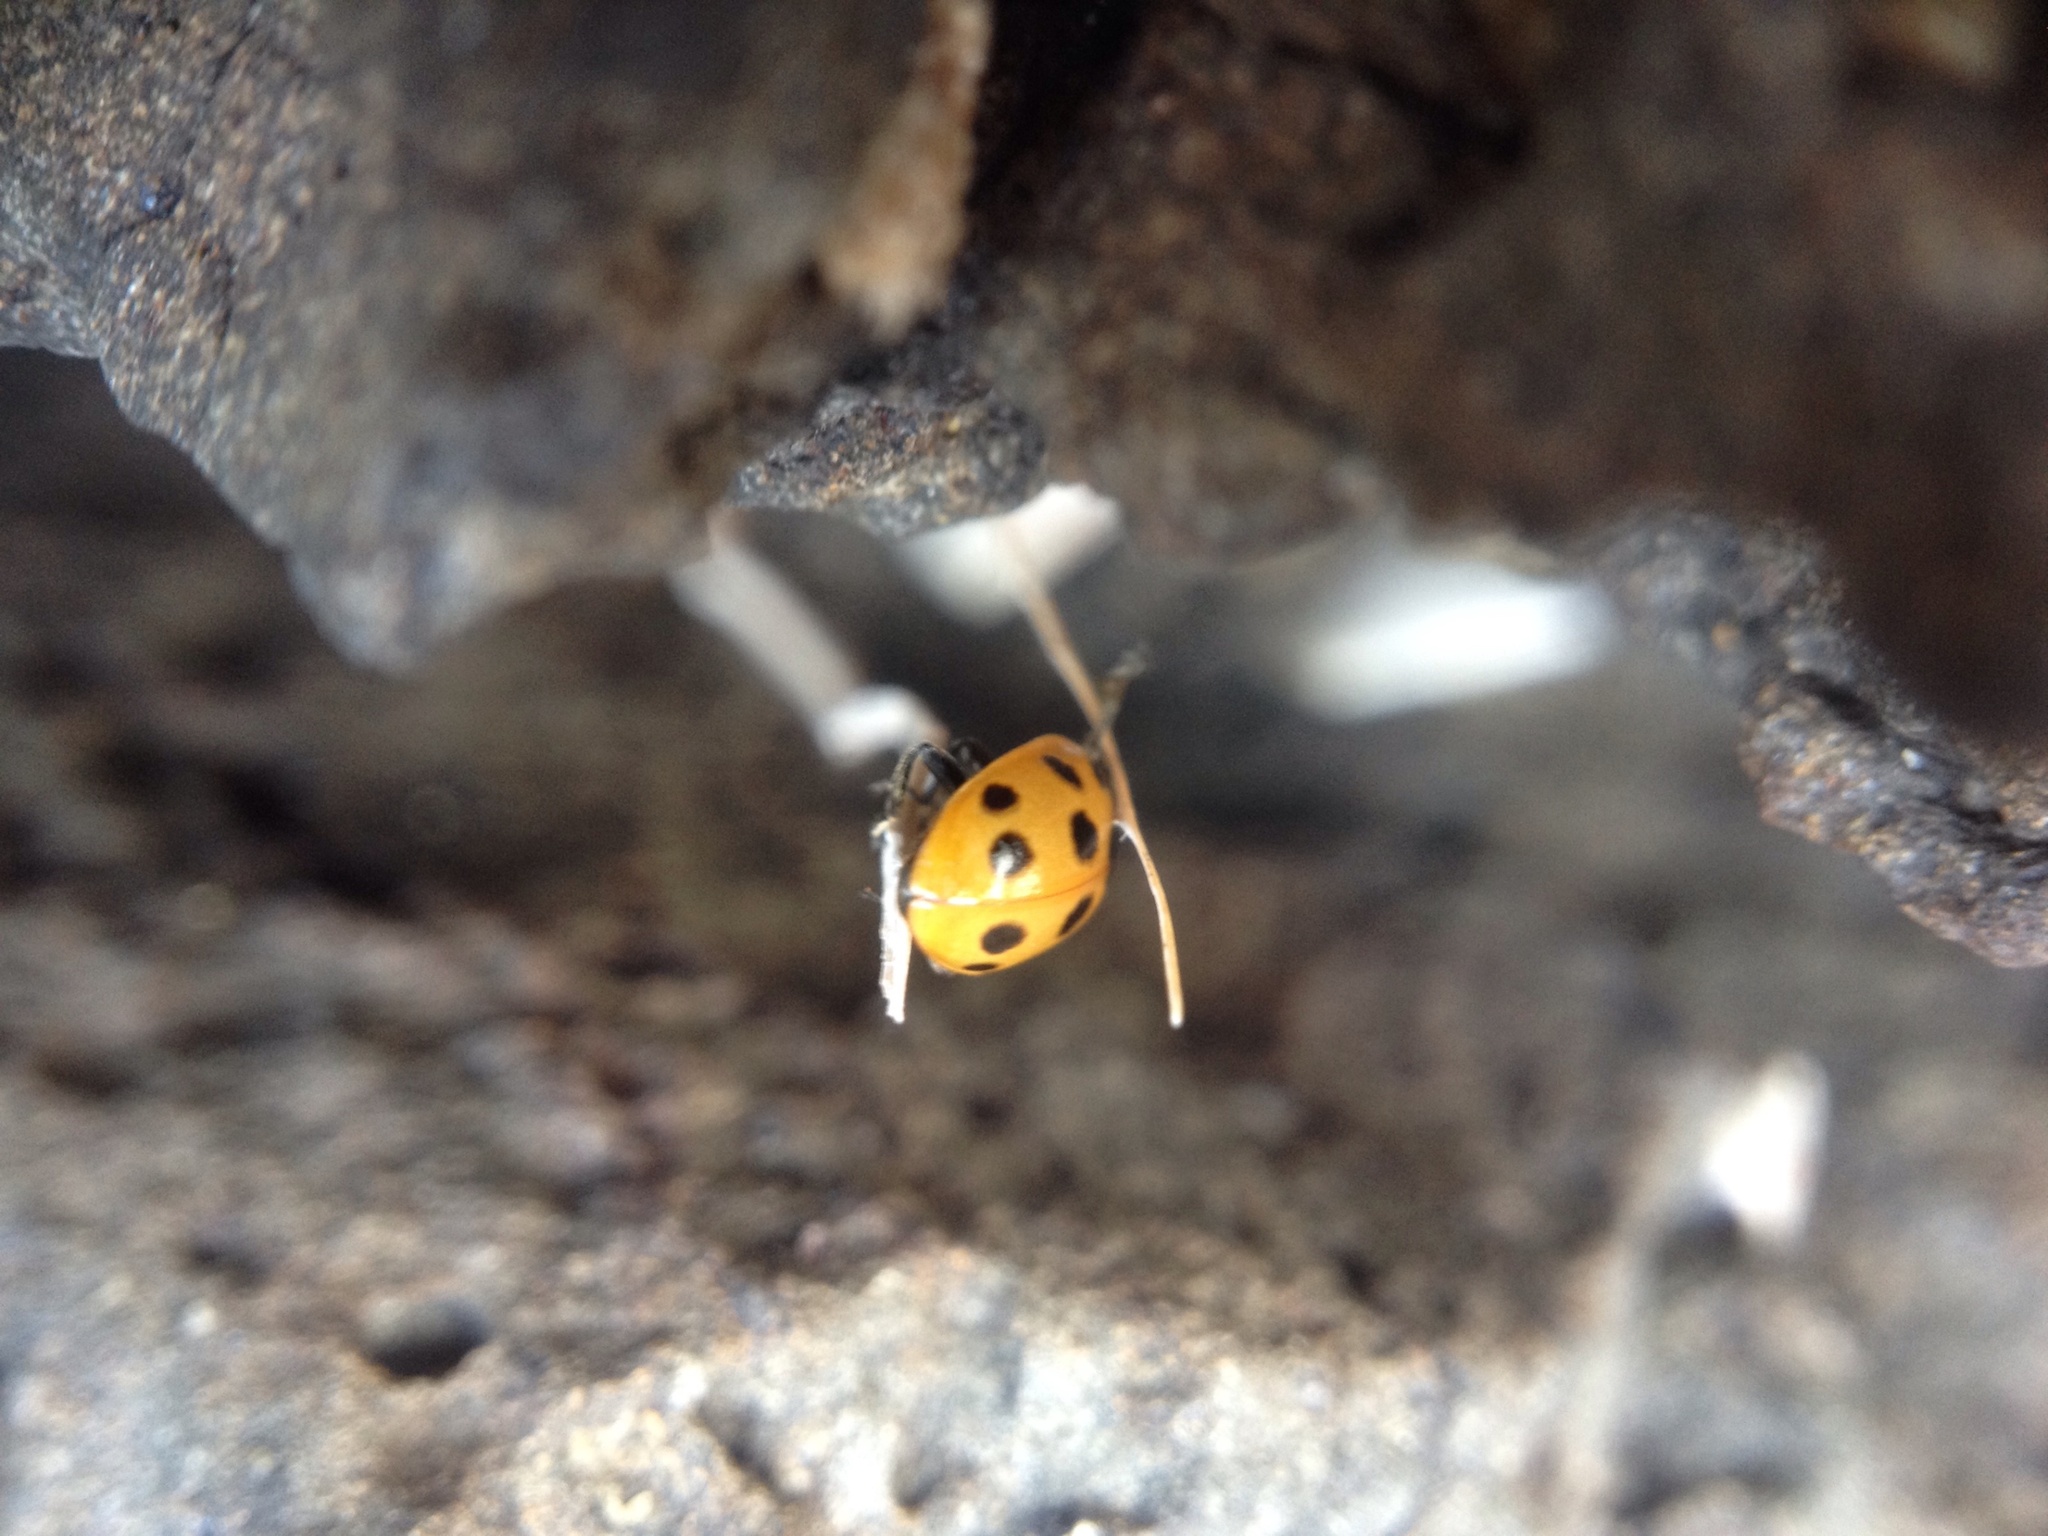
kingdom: Animalia
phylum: Arthropoda
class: Insecta
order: Coleoptera
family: Coccinellidae
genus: Coccinella
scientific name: Coccinella undecimpunctata
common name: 11-spot ladybird
